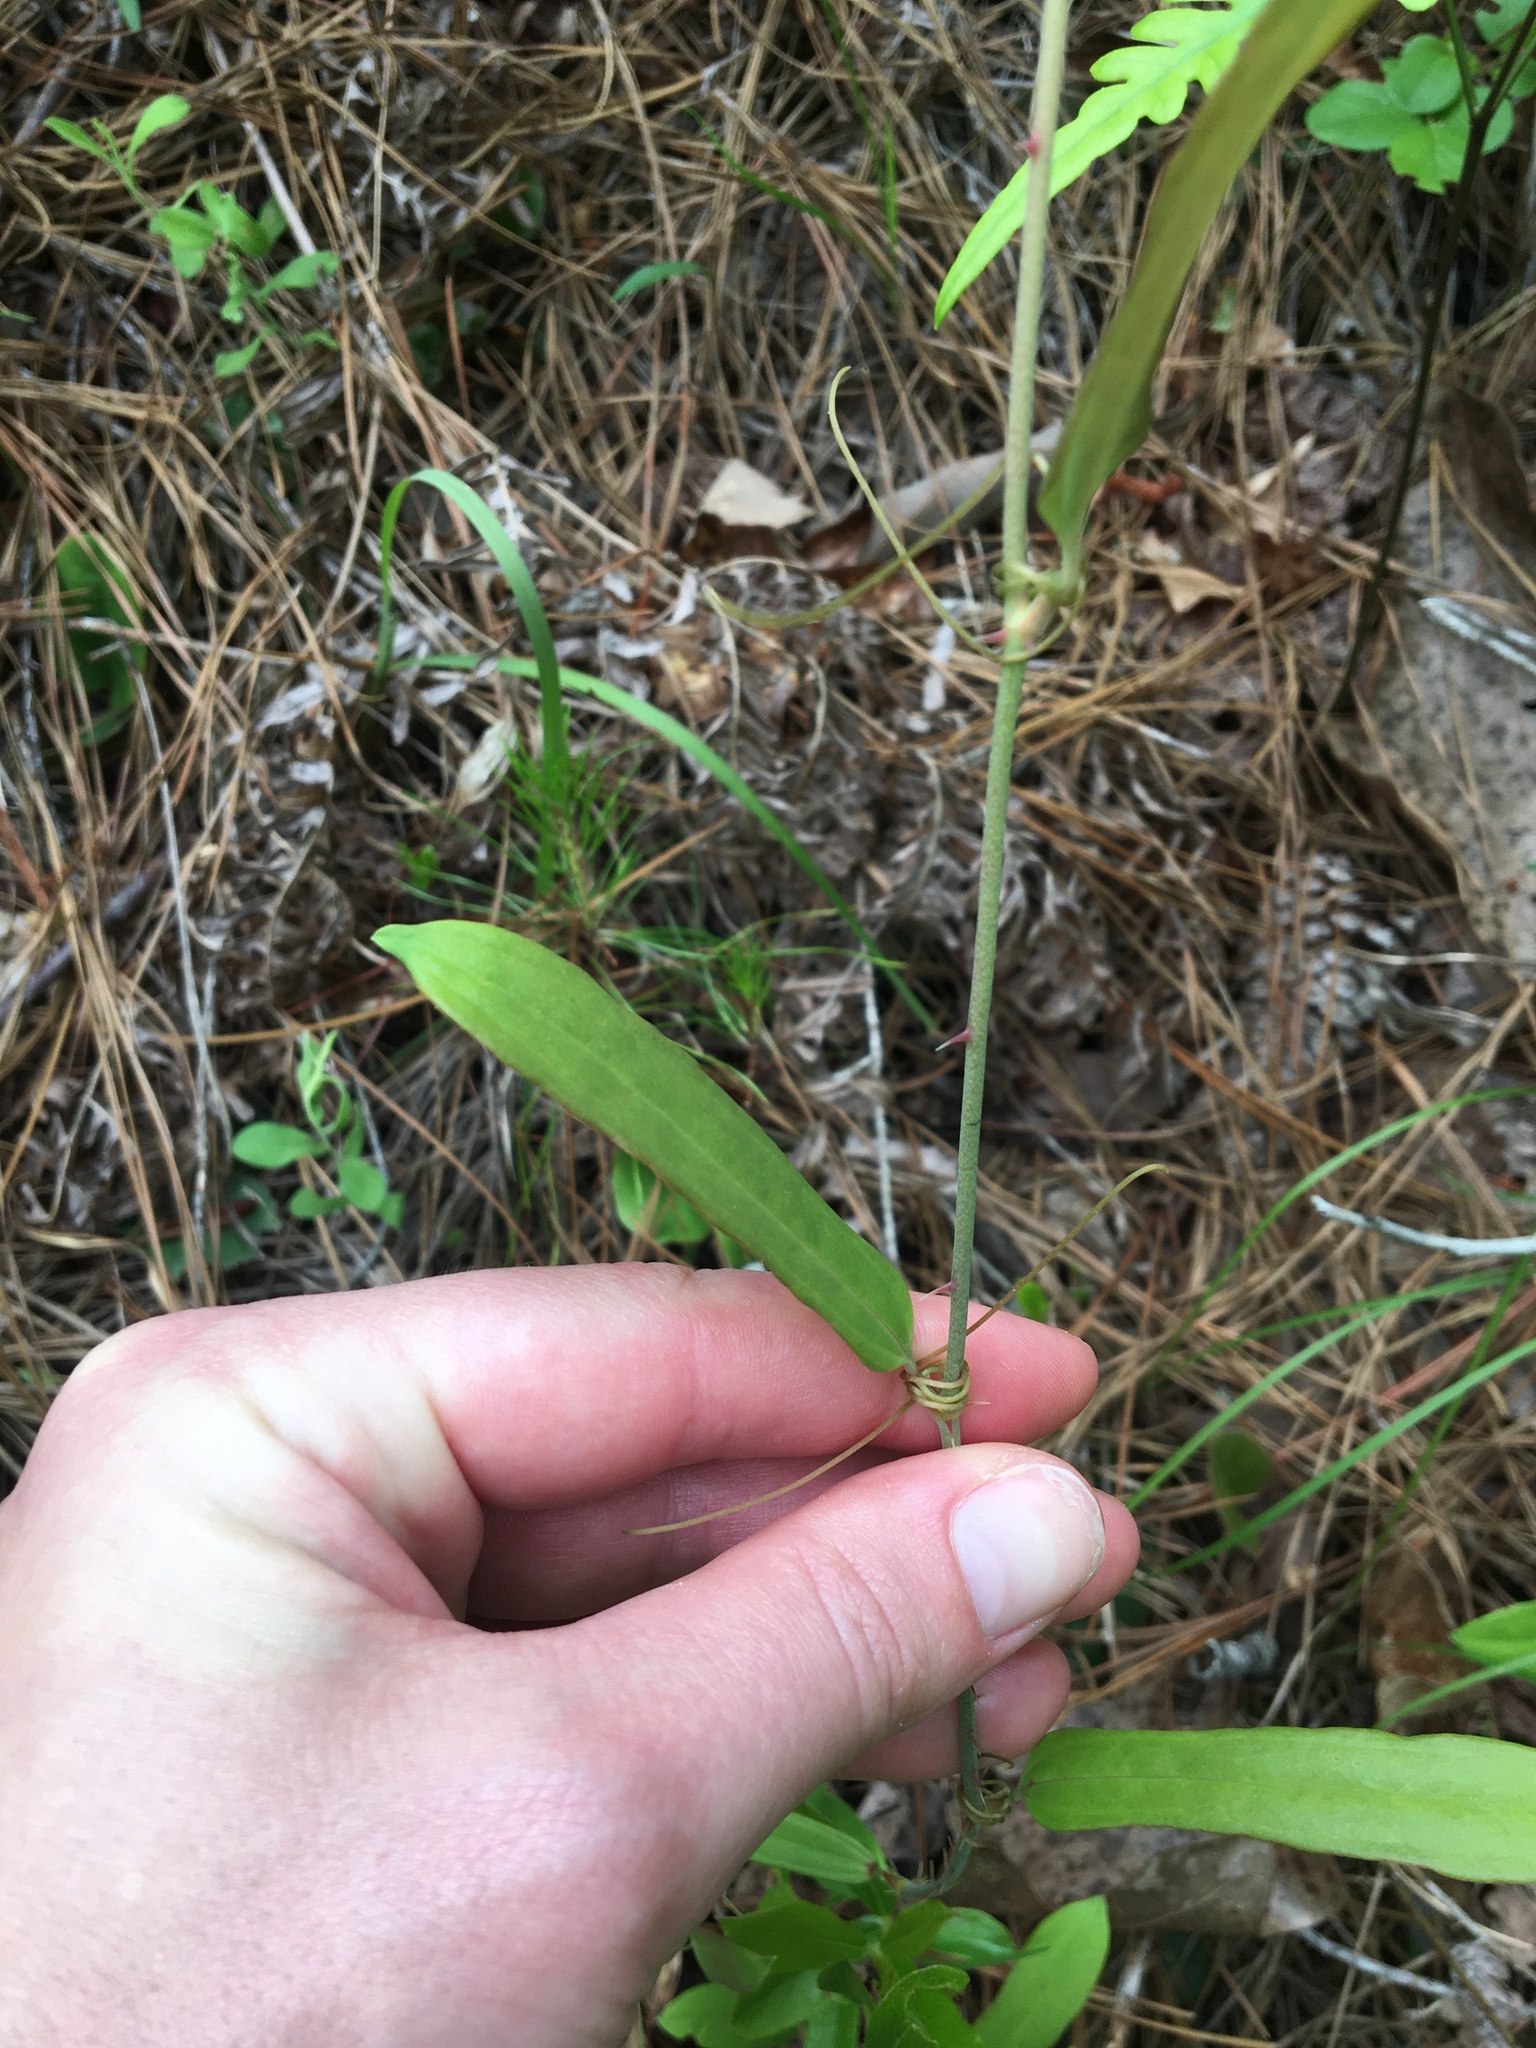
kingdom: Plantae
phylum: Tracheophyta
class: Liliopsida
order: Liliales
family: Smilacaceae
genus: Smilax
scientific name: Smilax laurifolia
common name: Bamboovine
